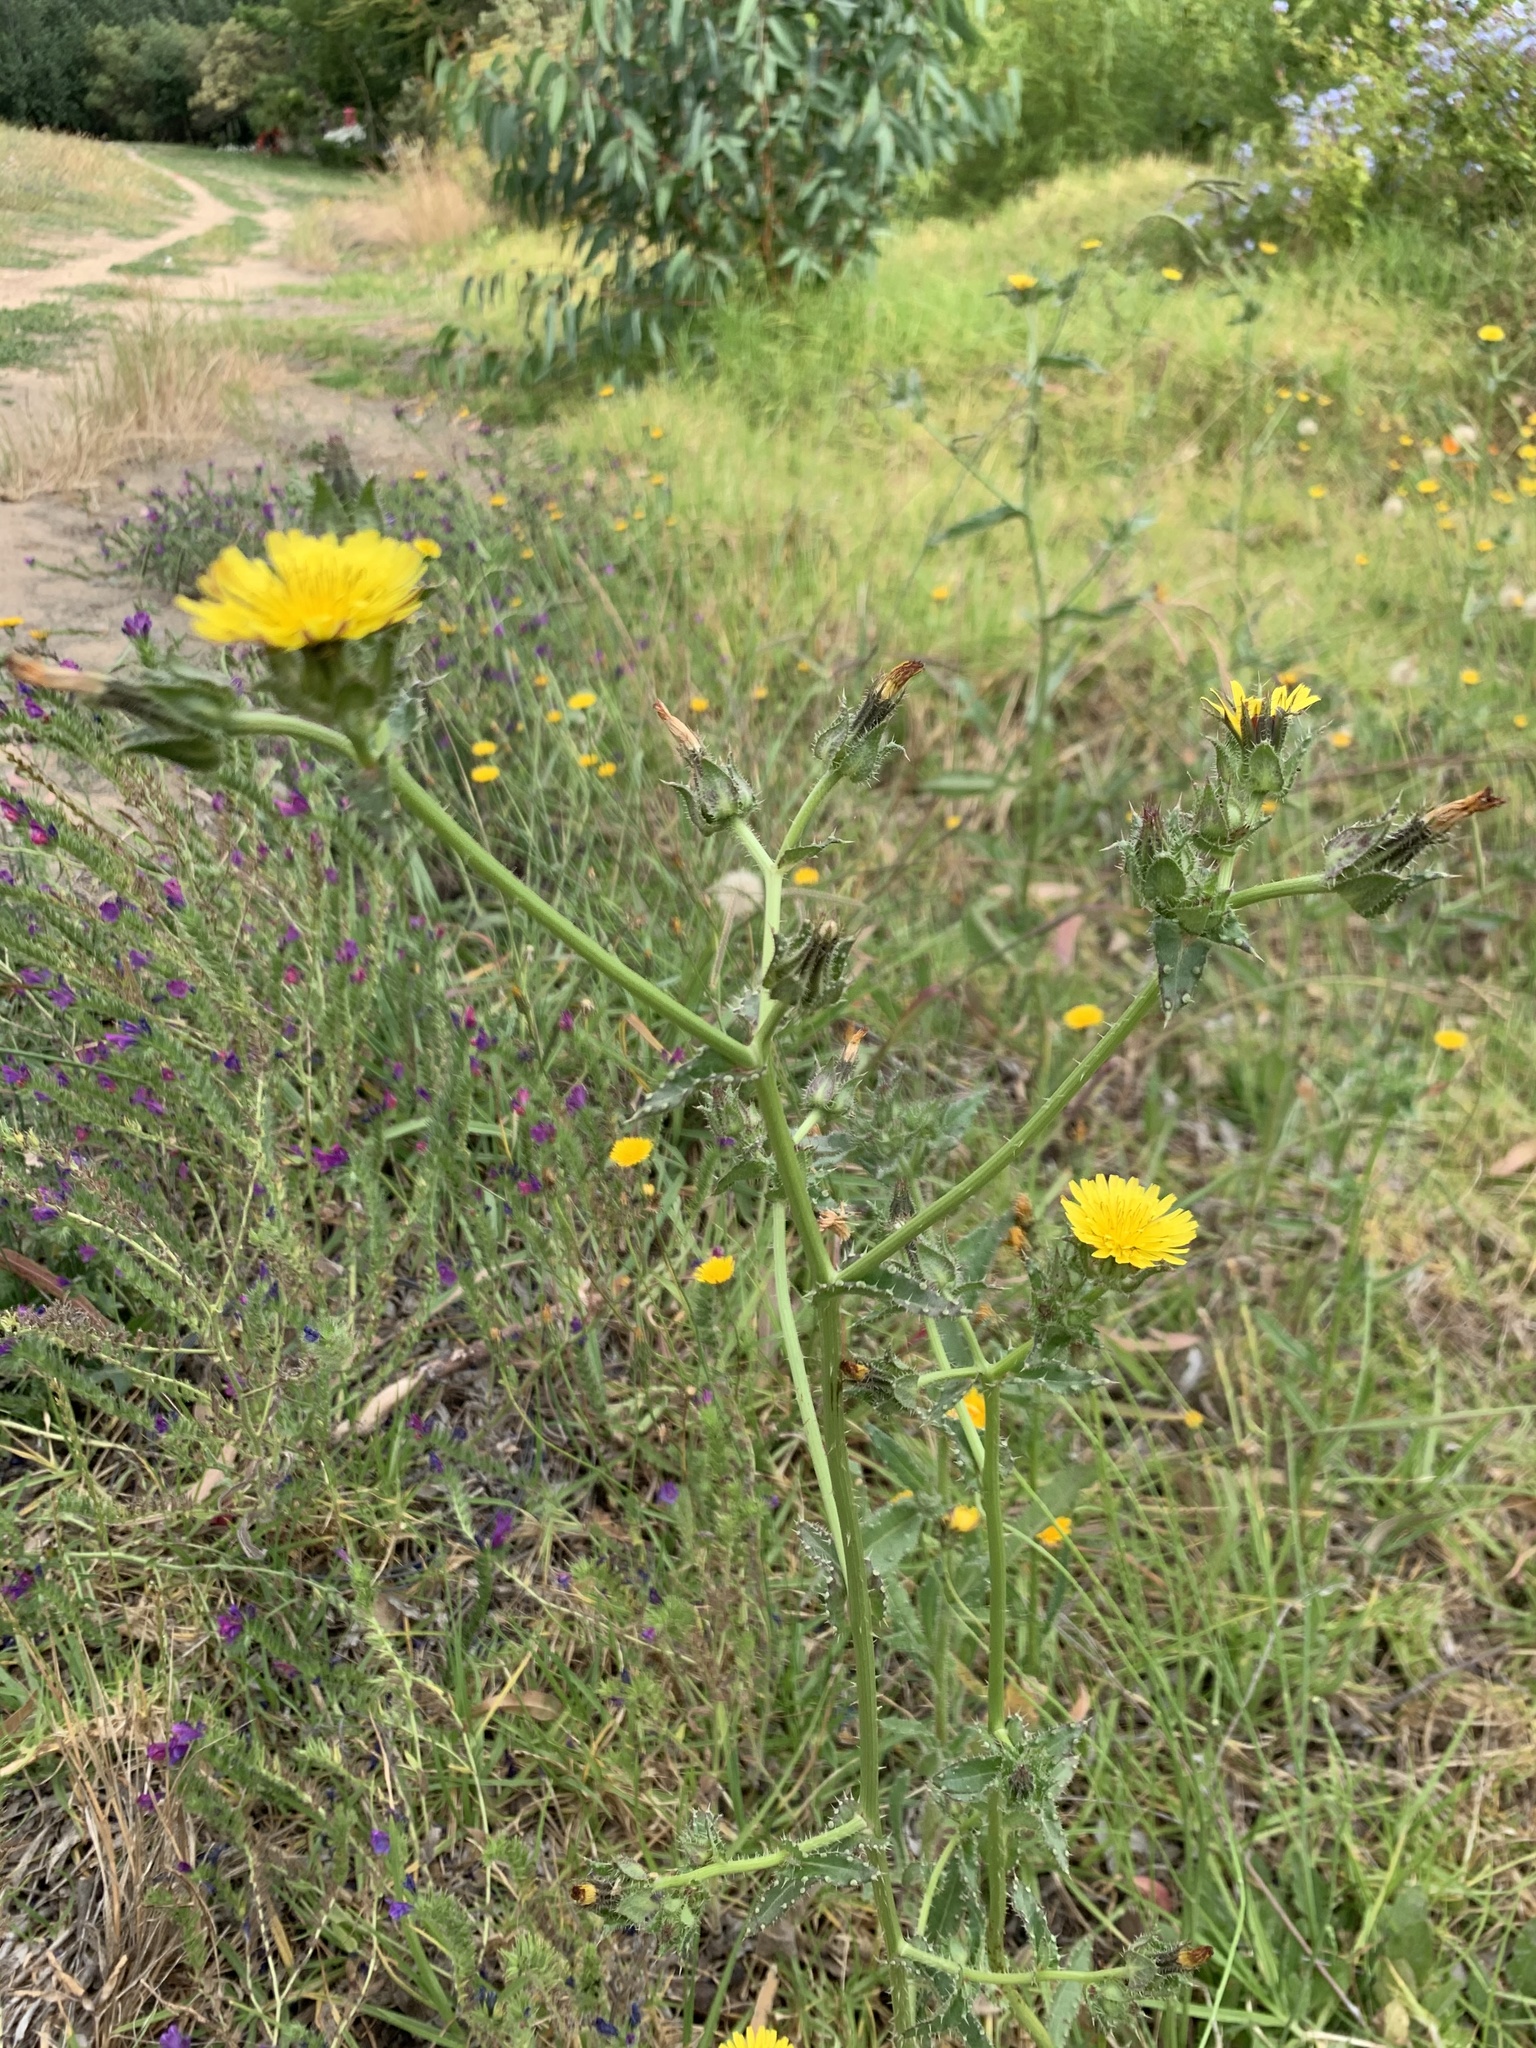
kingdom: Plantae
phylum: Tracheophyta
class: Magnoliopsida
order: Asterales
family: Asteraceae
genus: Hypochaeris
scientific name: Hypochaeris radicata
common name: Flatweed
